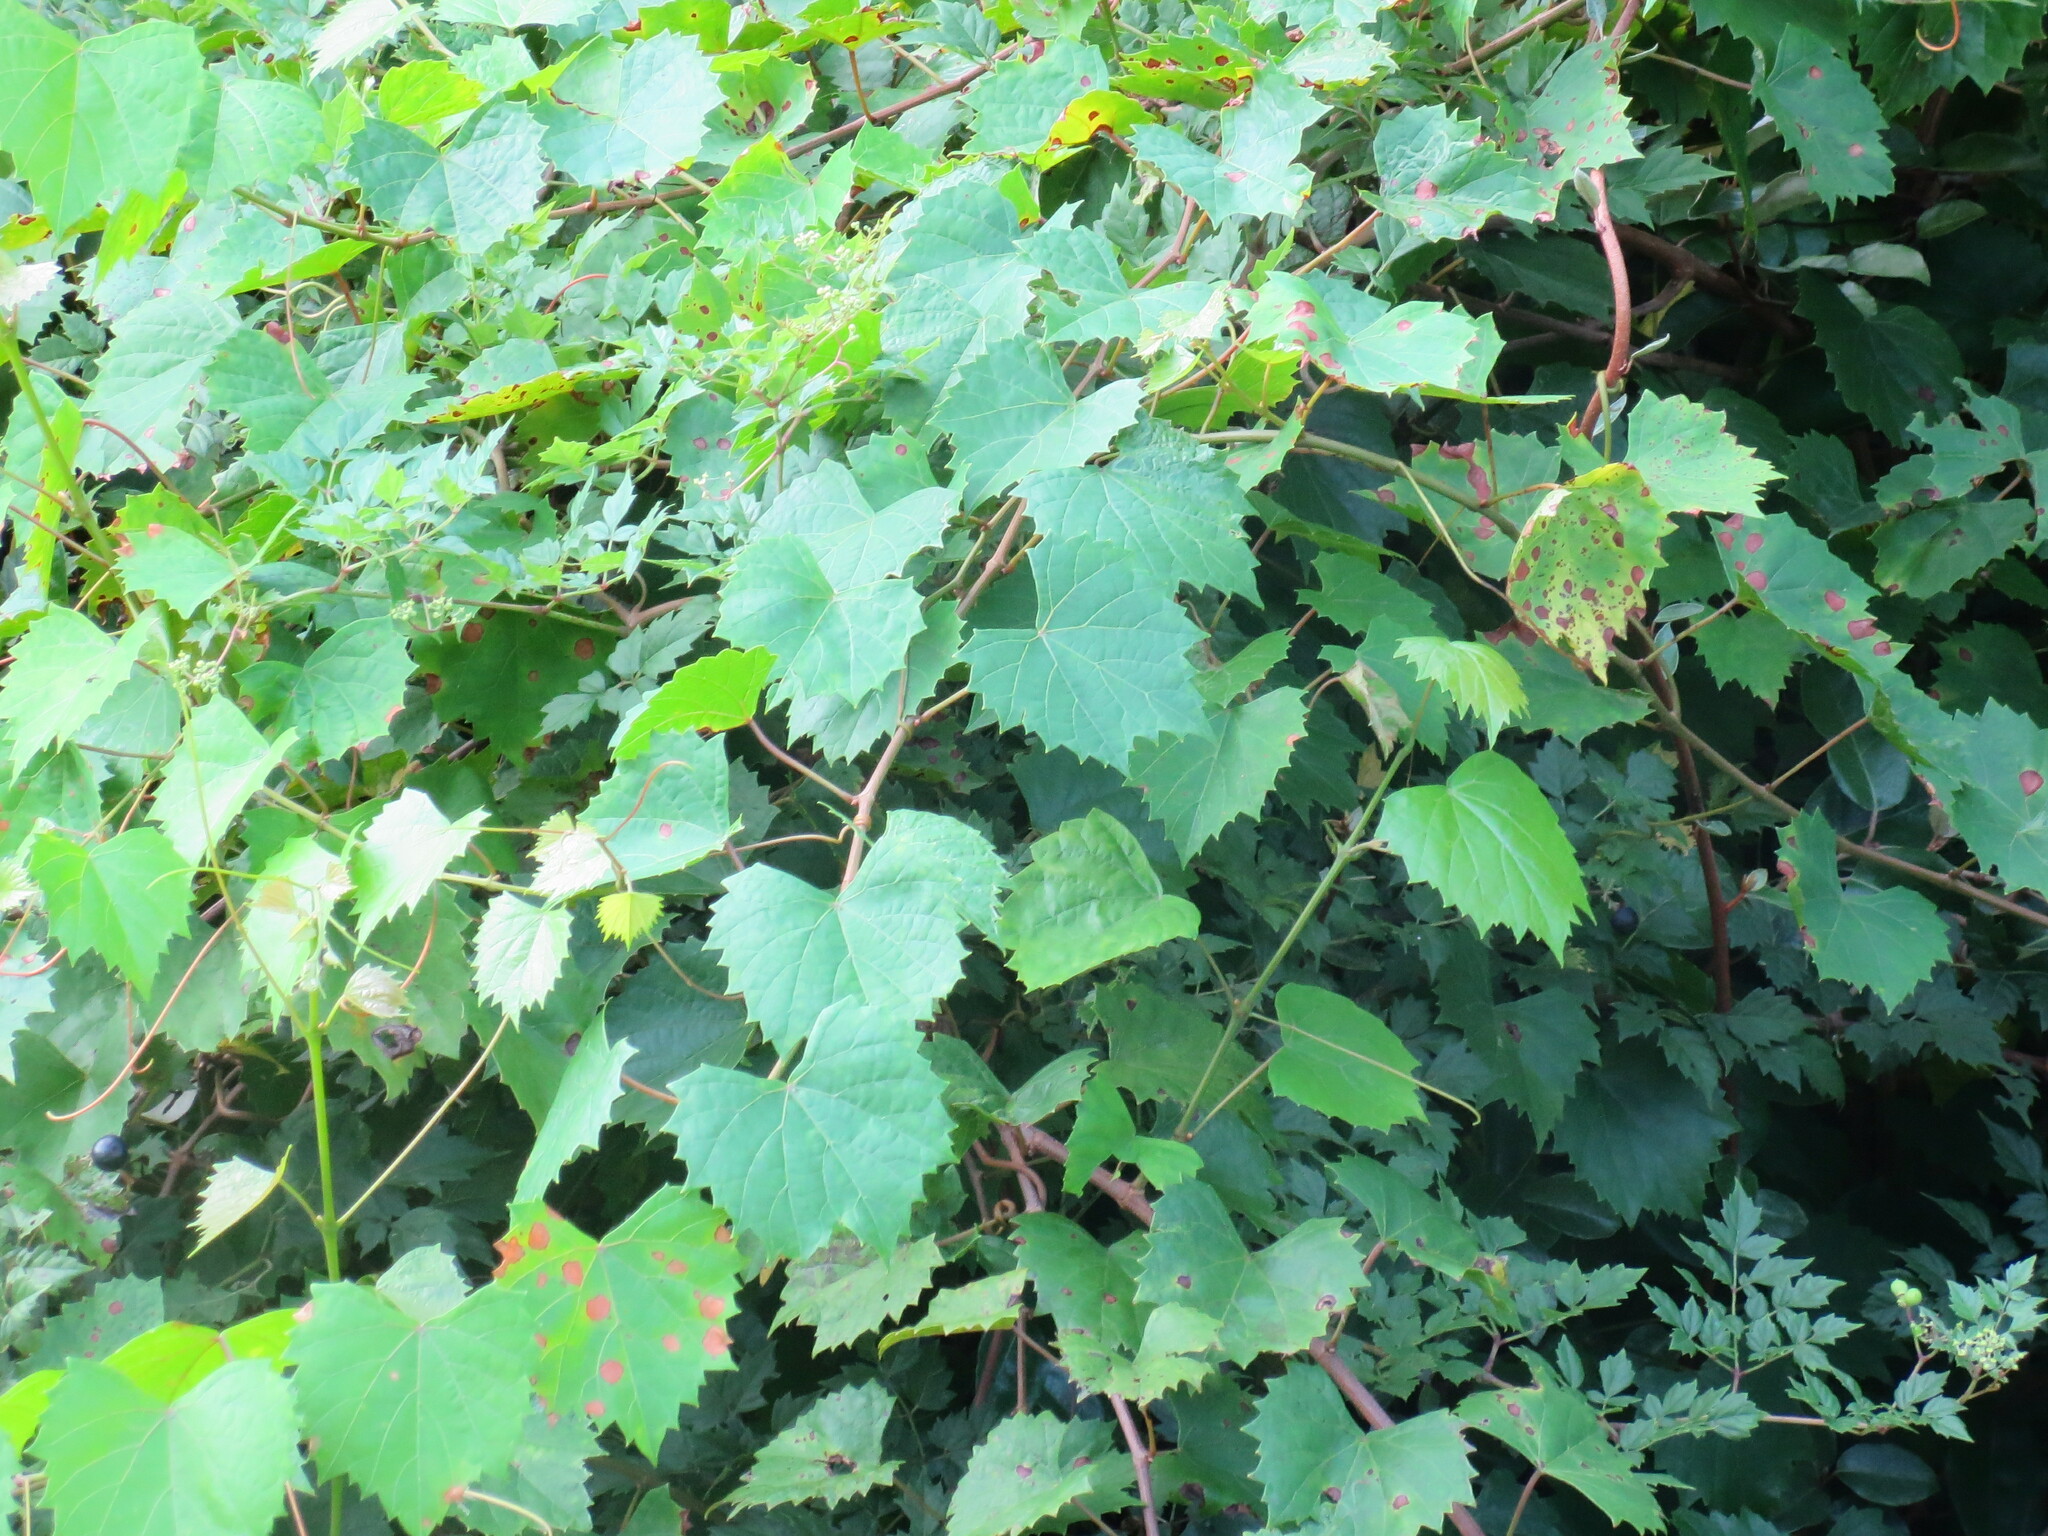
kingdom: Plantae
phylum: Tracheophyta
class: Magnoliopsida
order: Vitales
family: Vitaceae
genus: Vitis
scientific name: Vitis rotundifolia
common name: Muscadine grape
